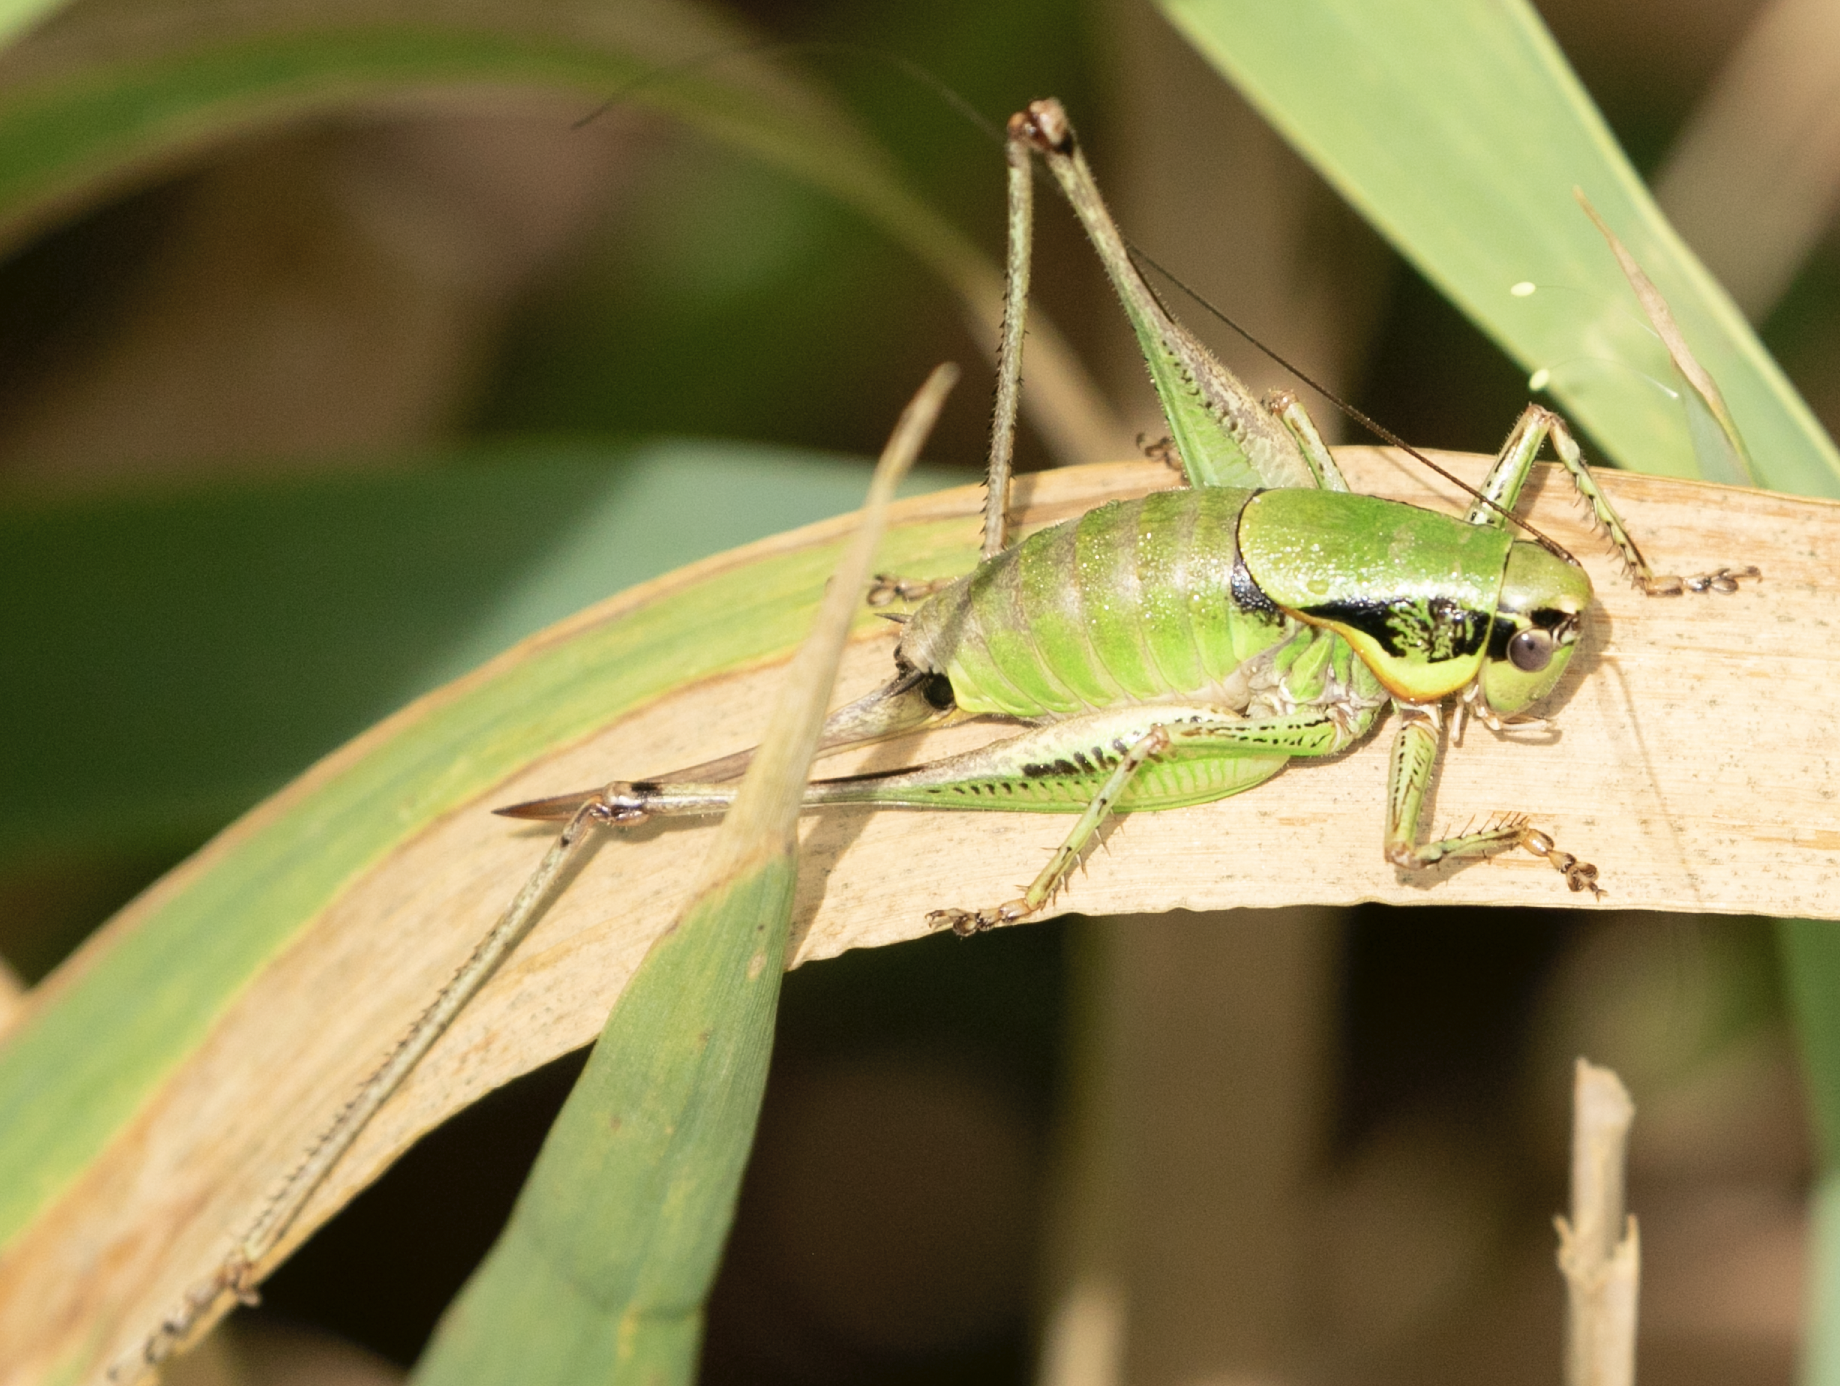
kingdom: Animalia
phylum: Arthropoda
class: Insecta
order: Orthoptera
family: Tettigoniidae
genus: Eupholidoptera
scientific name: Eupholidoptera chabrieri
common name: Chabrier's marbled bush-cricket
